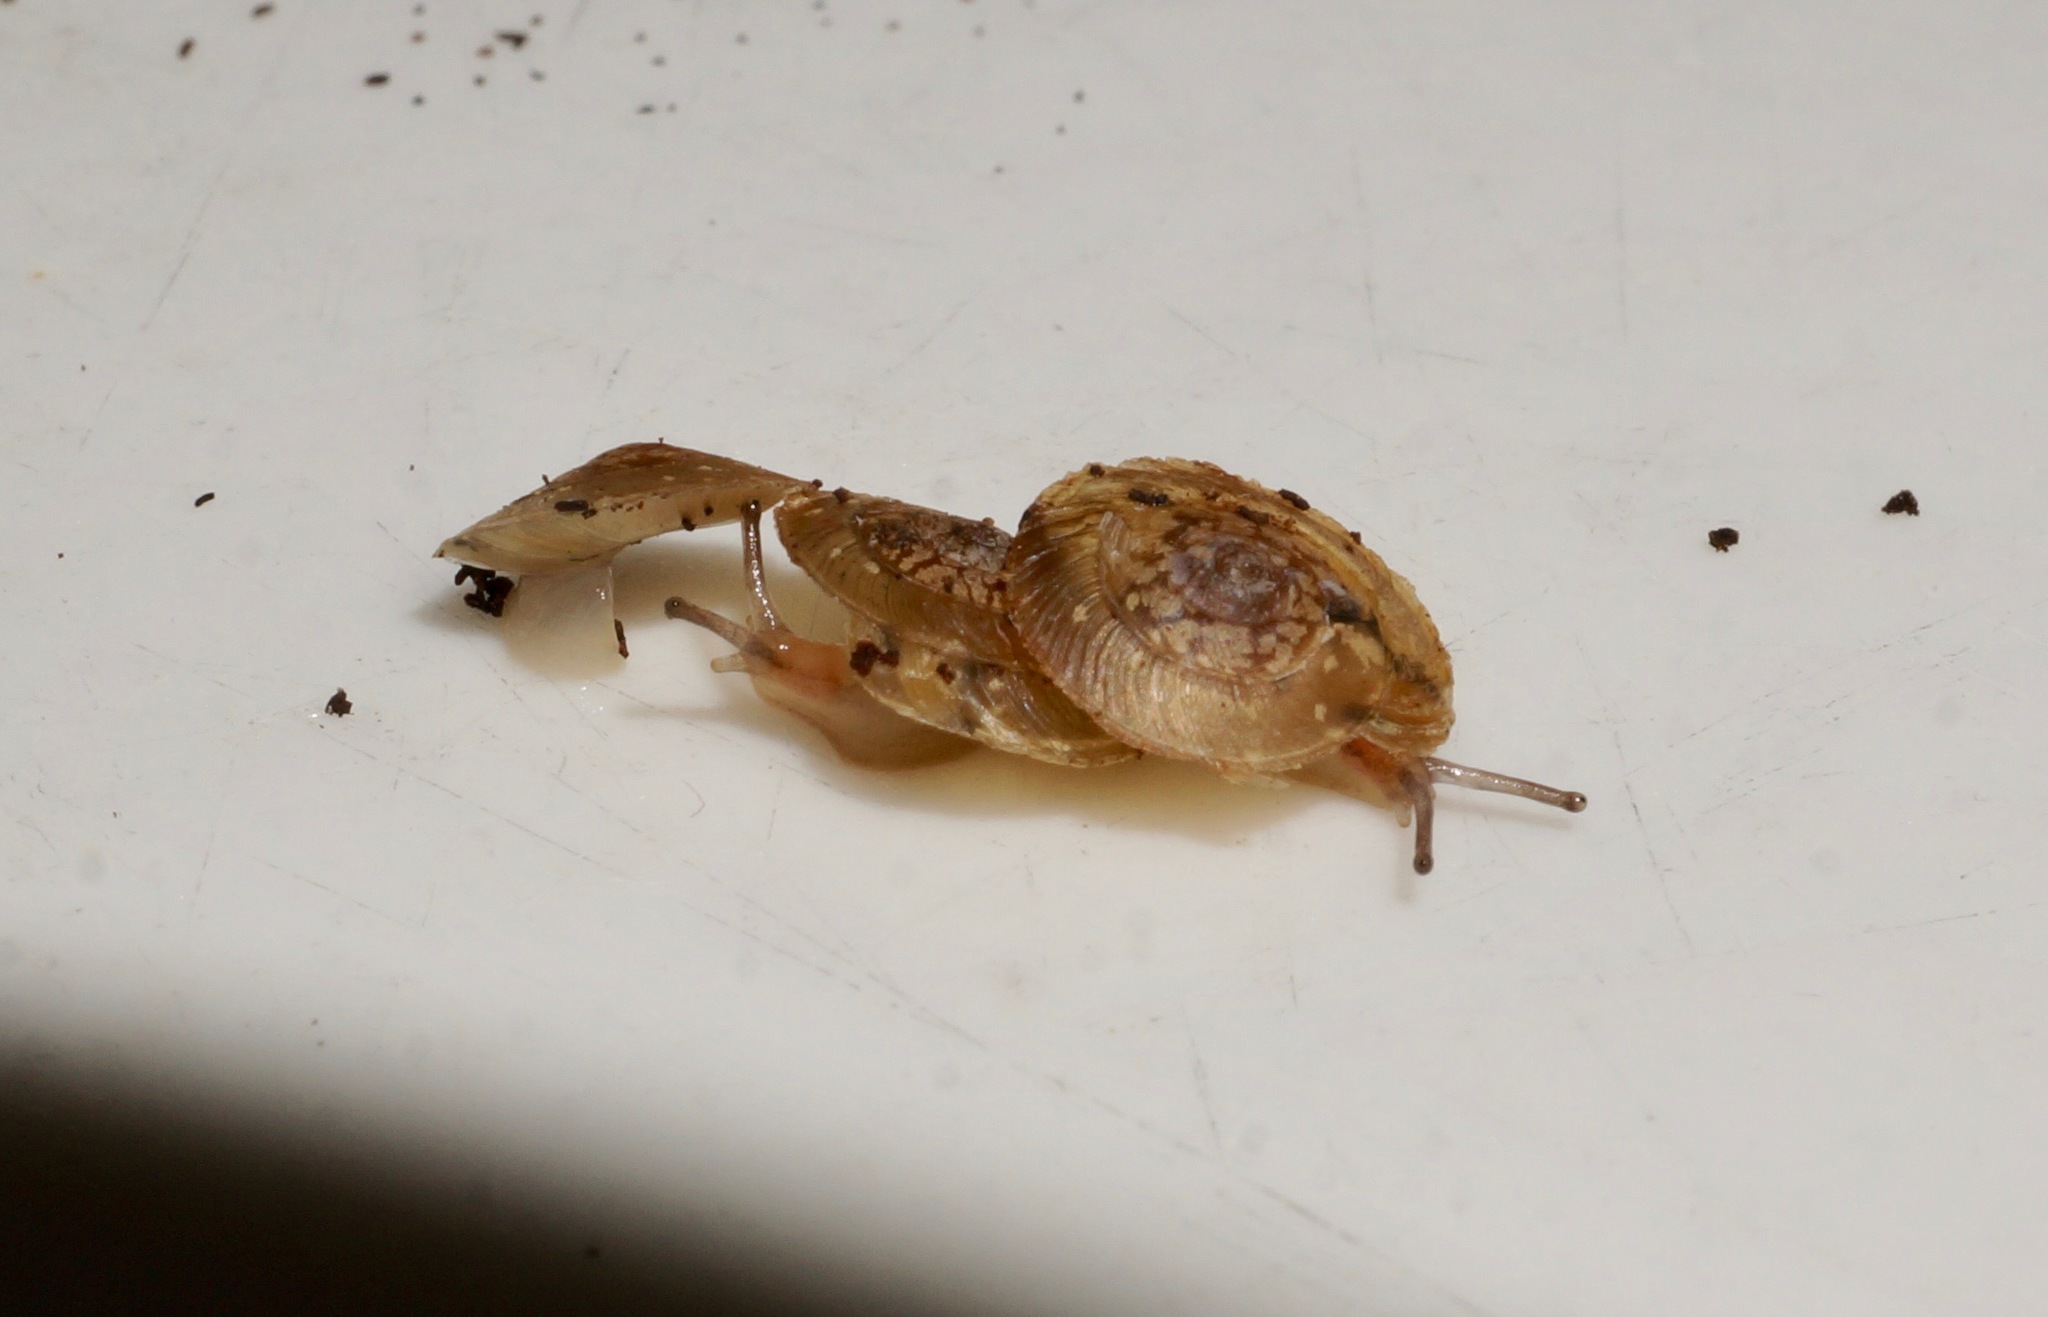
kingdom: Animalia
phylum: Mollusca
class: Gastropoda
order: Stylommatophora
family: Microcystidae
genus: Allenoconcha
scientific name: Allenoconcha platysoma
